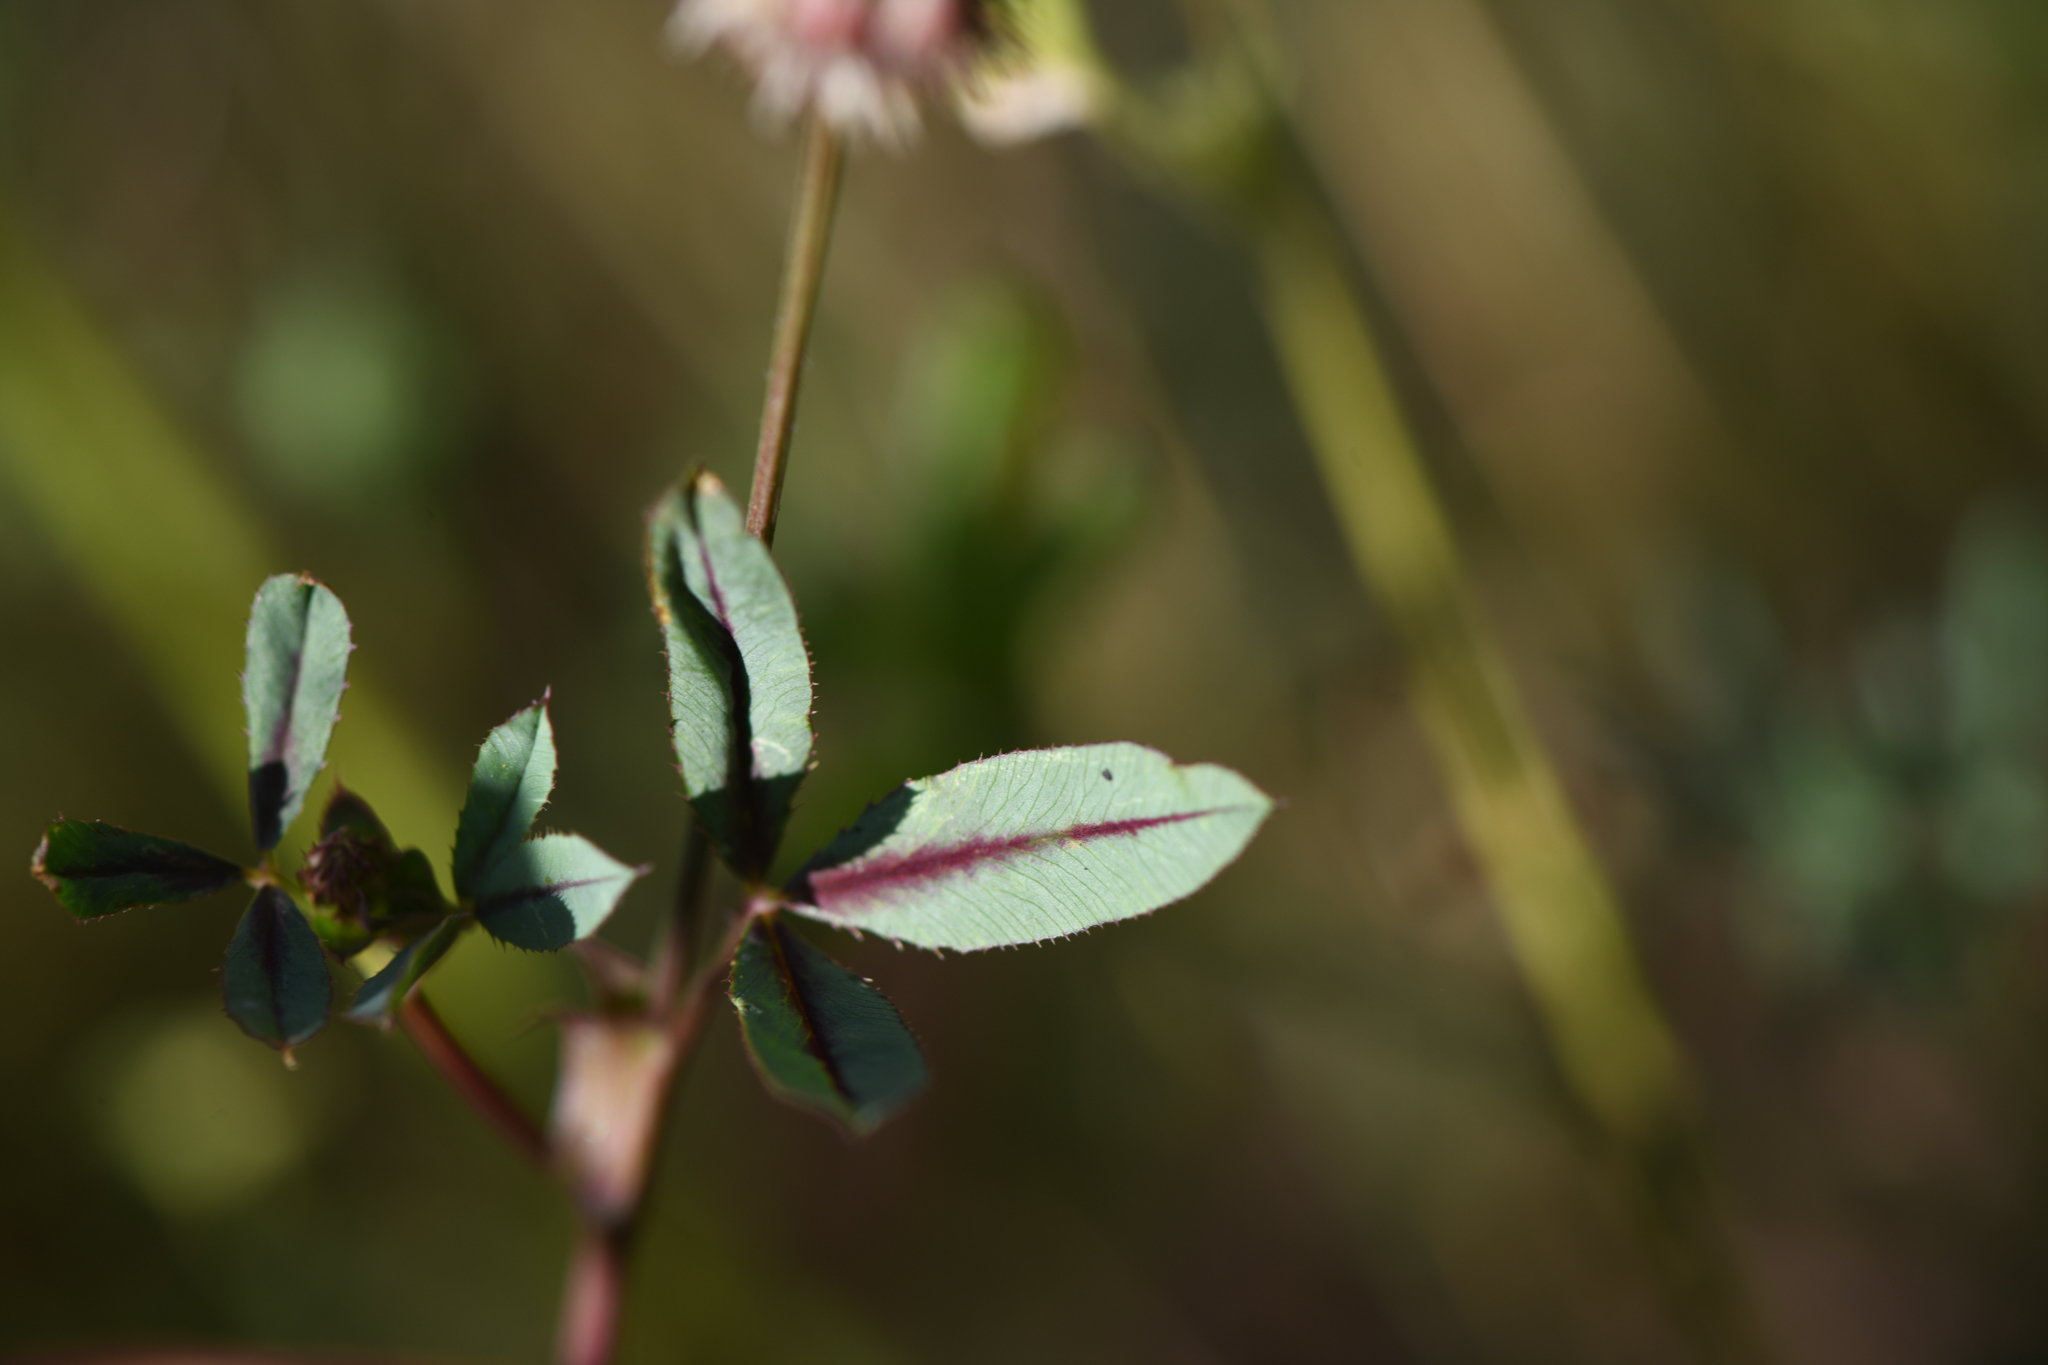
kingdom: Plantae
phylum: Tracheophyta
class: Magnoliopsida
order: Fabales
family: Fabaceae
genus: Trifolium
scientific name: Trifolium ciliolatum
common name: Foothill clover
